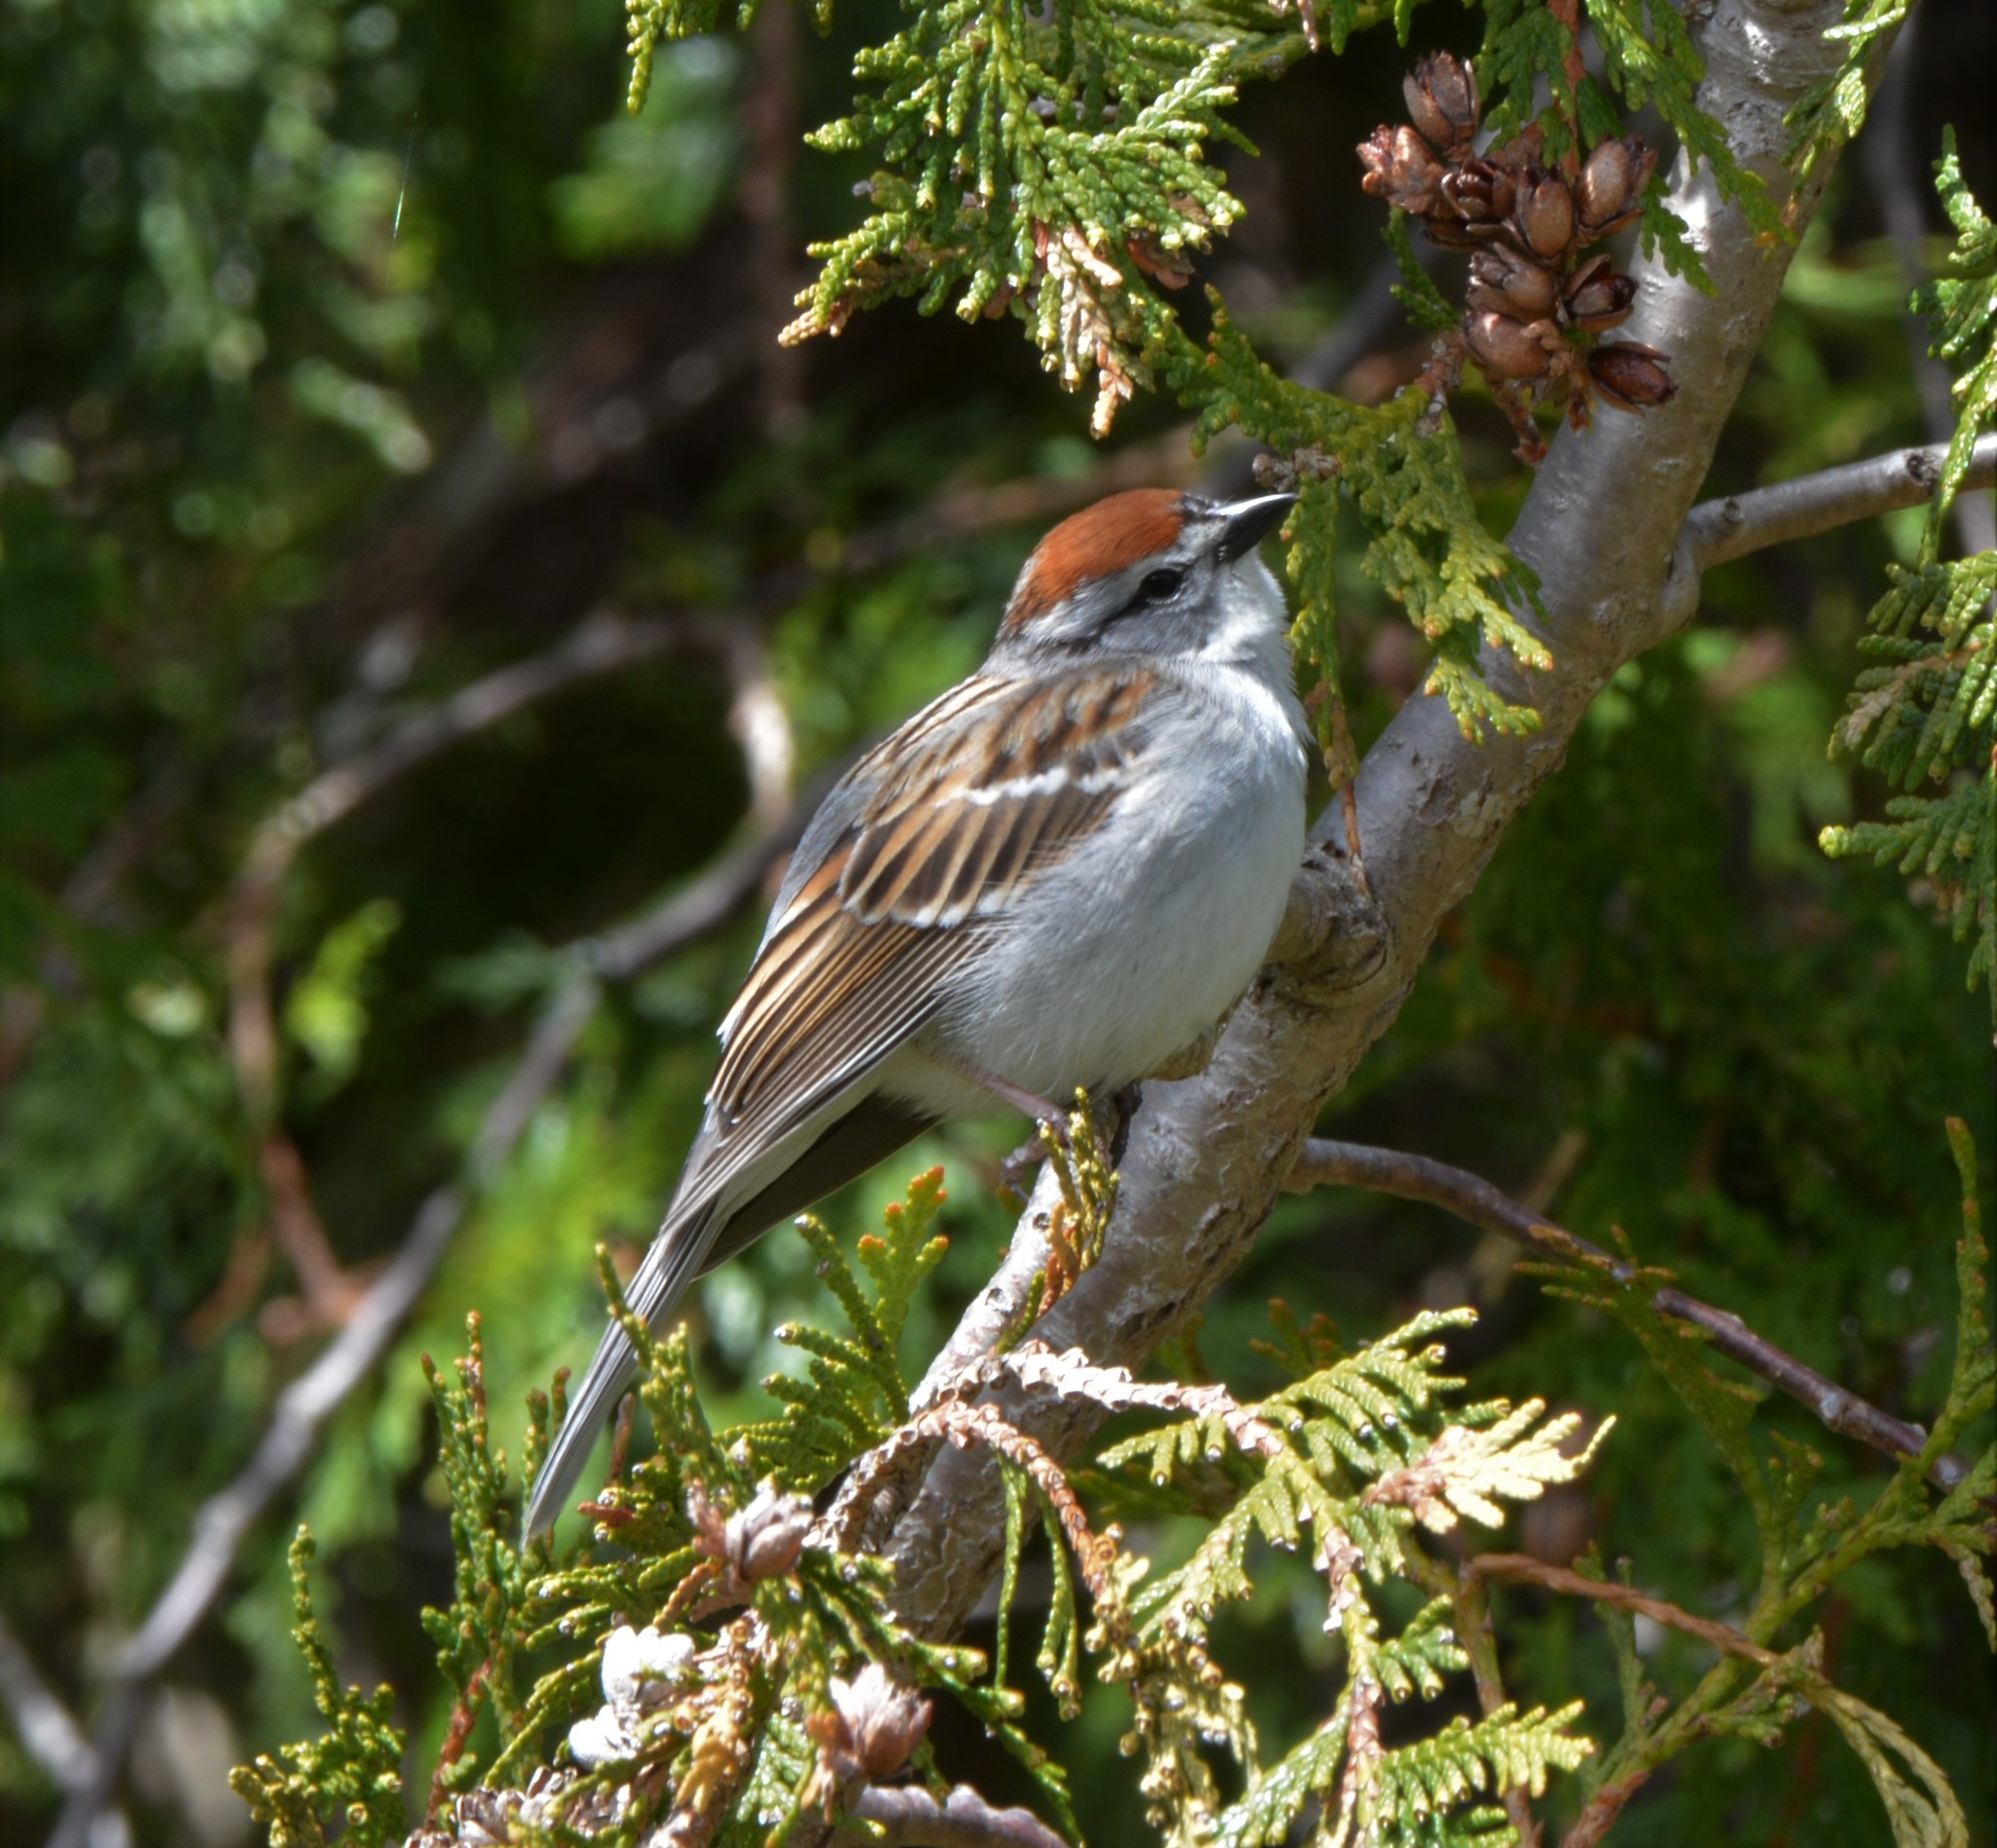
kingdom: Animalia
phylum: Chordata
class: Aves
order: Passeriformes
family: Passerellidae
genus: Spizella
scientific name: Spizella passerina
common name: Chipping sparrow
